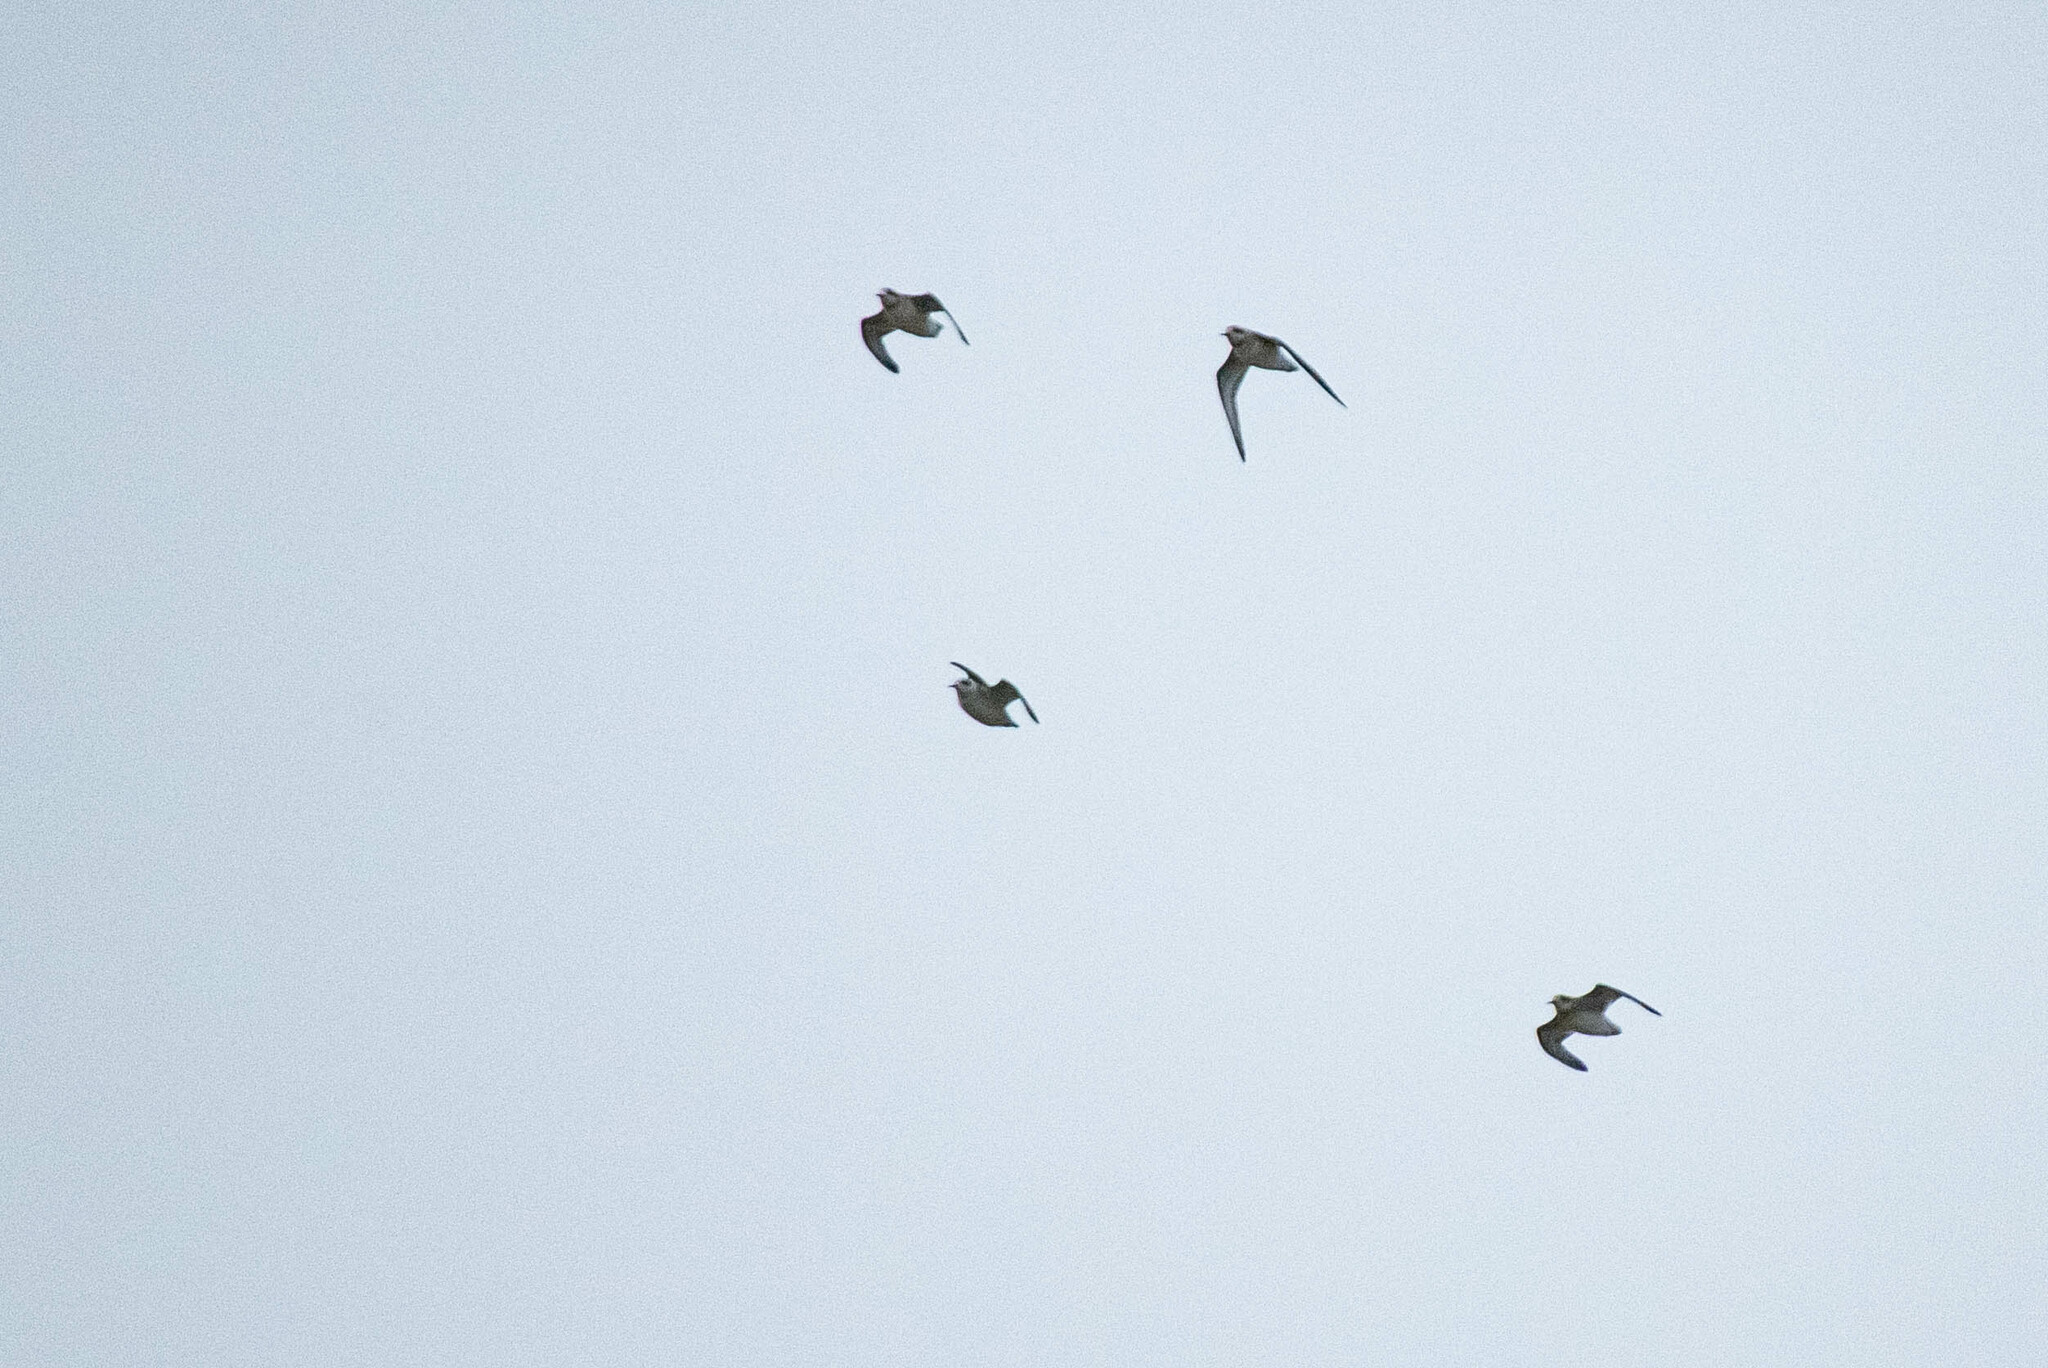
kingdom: Animalia
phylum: Chordata
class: Aves
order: Charadriiformes
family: Scolopacidae
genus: Phalaropus
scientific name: Phalaropus lobatus
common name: Red-necked phalarope
